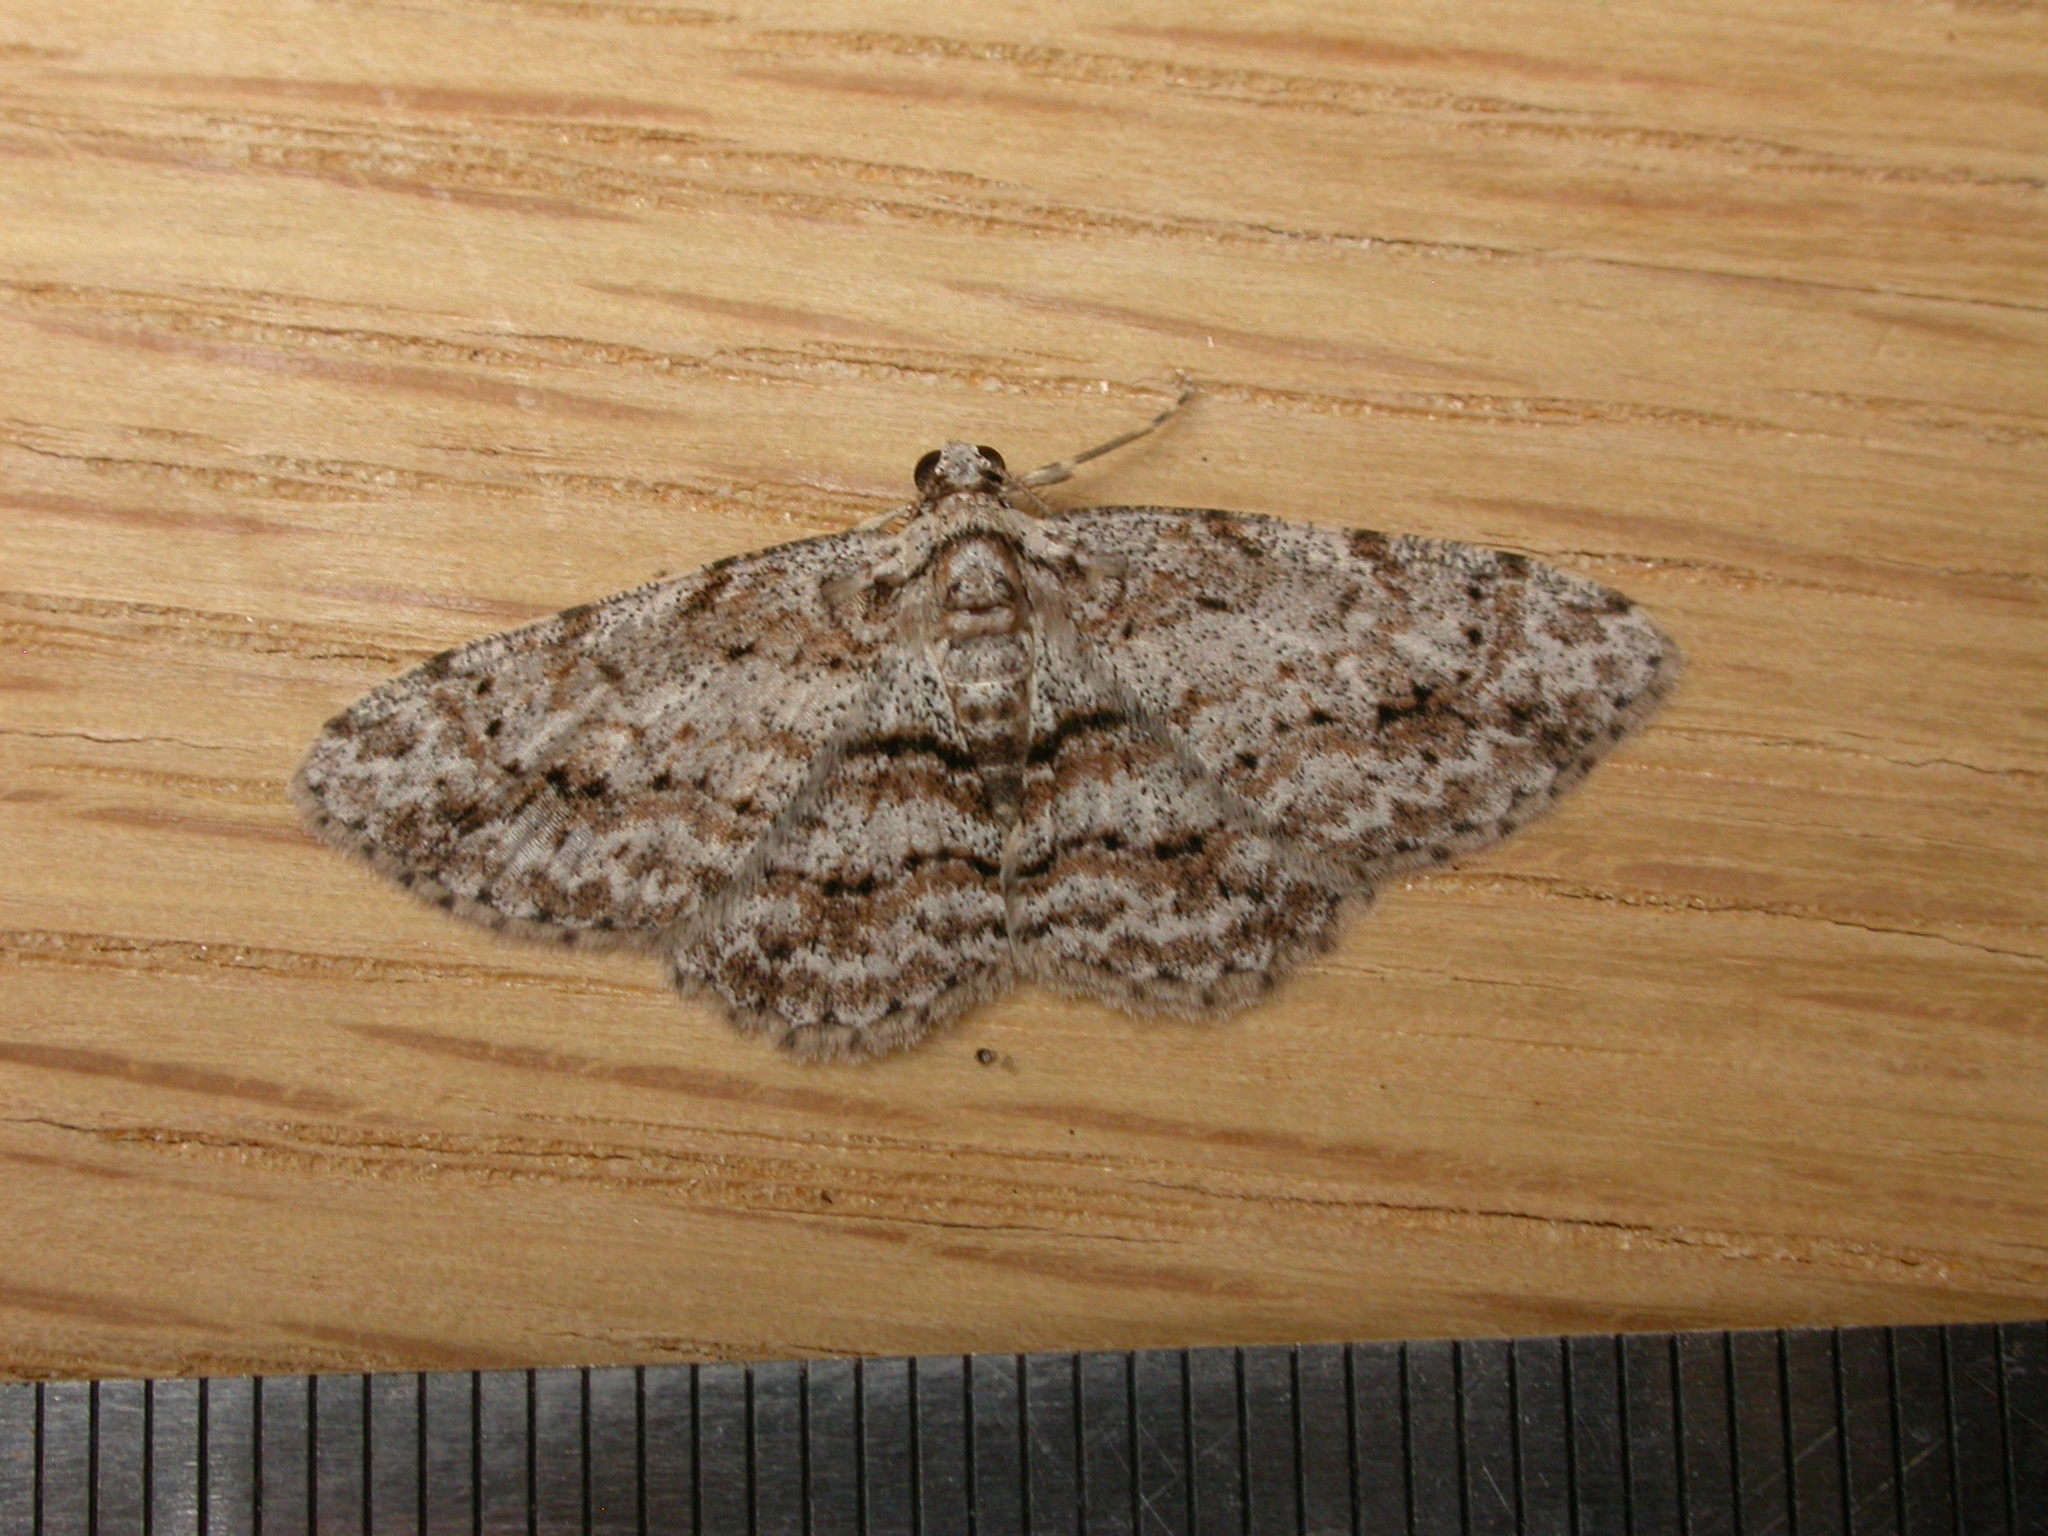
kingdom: Animalia
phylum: Arthropoda
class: Insecta
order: Lepidoptera
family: Geometridae
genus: Didymoctenia
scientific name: Didymoctenia exsuperata
